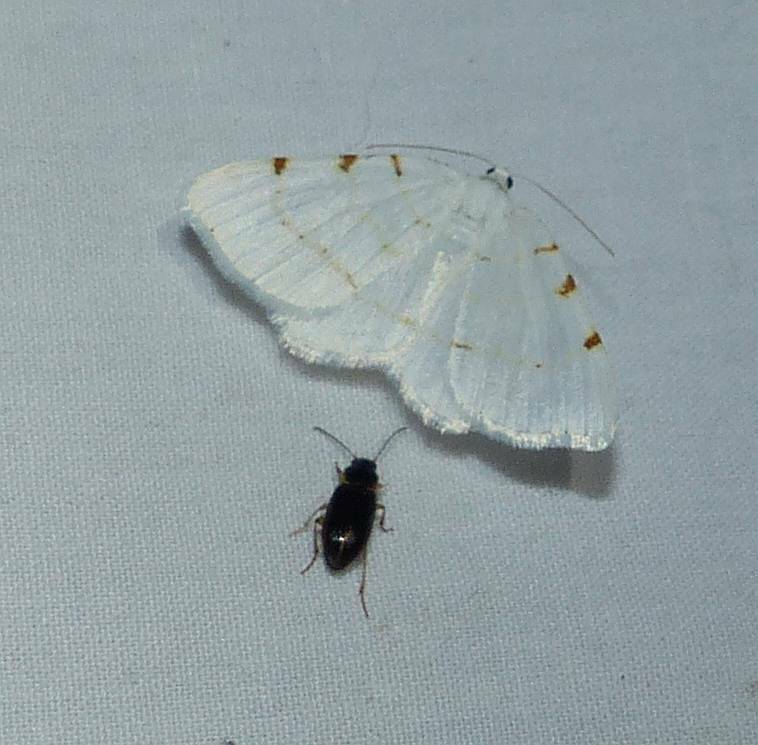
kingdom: Animalia
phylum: Arthropoda
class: Insecta
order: Lepidoptera
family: Geometridae
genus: Macaria
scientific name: Macaria pustularia
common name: Lesser maple spanworm moth
